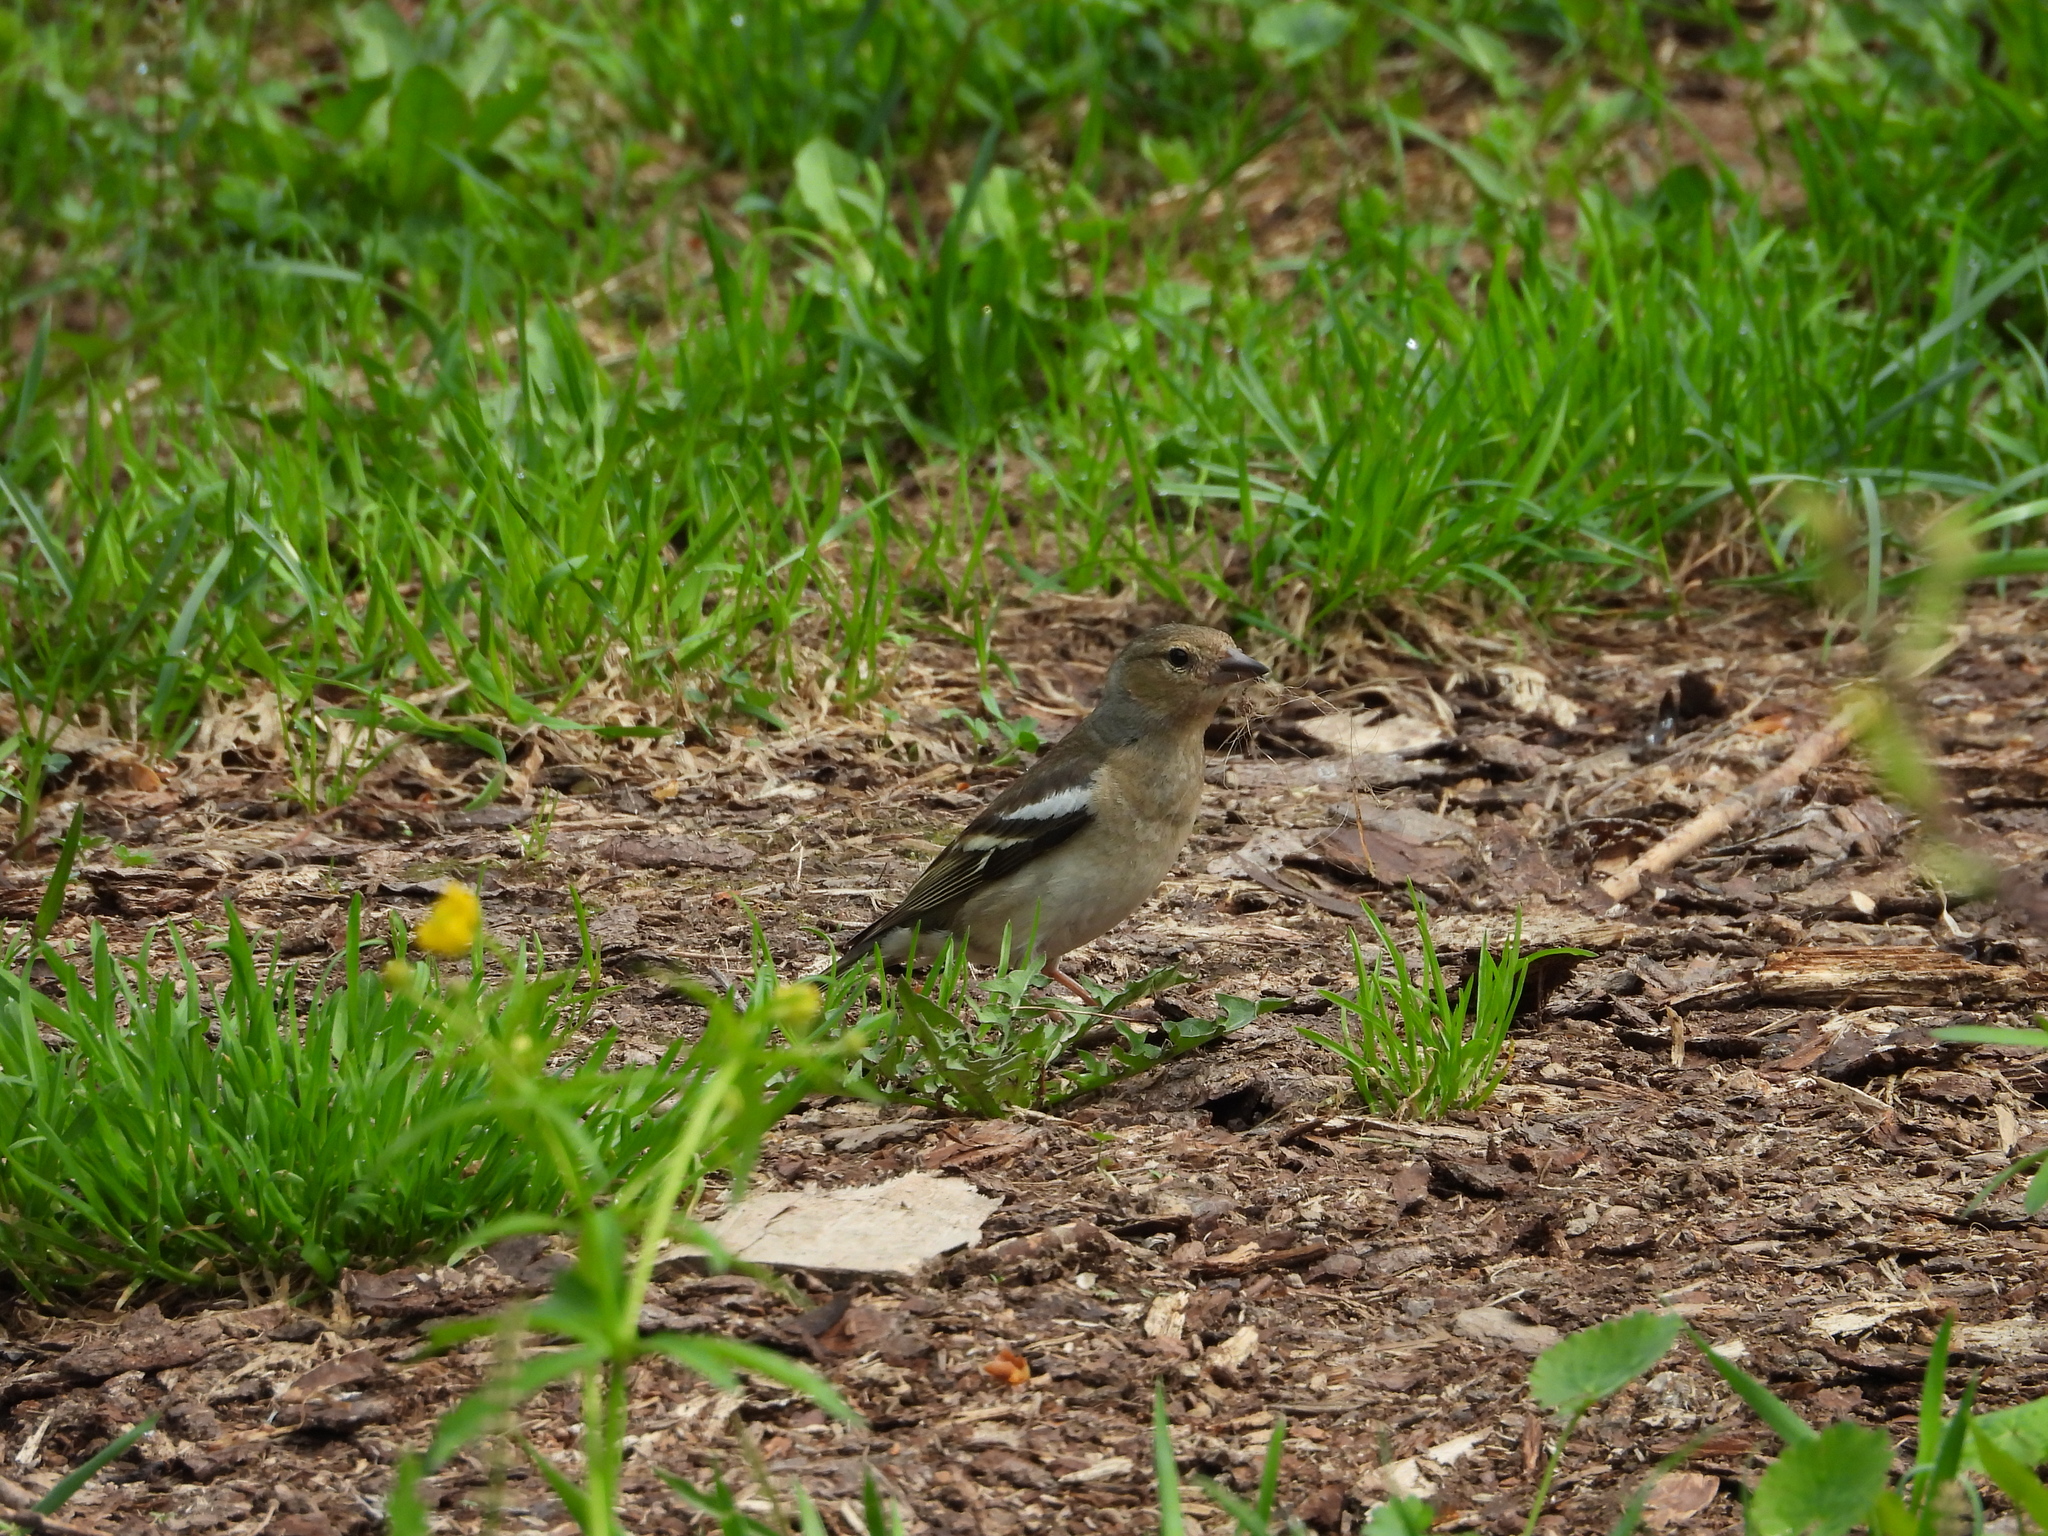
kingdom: Animalia
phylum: Chordata
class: Aves
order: Passeriformes
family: Fringillidae
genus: Fringilla
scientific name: Fringilla coelebs
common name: Common chaffinch
